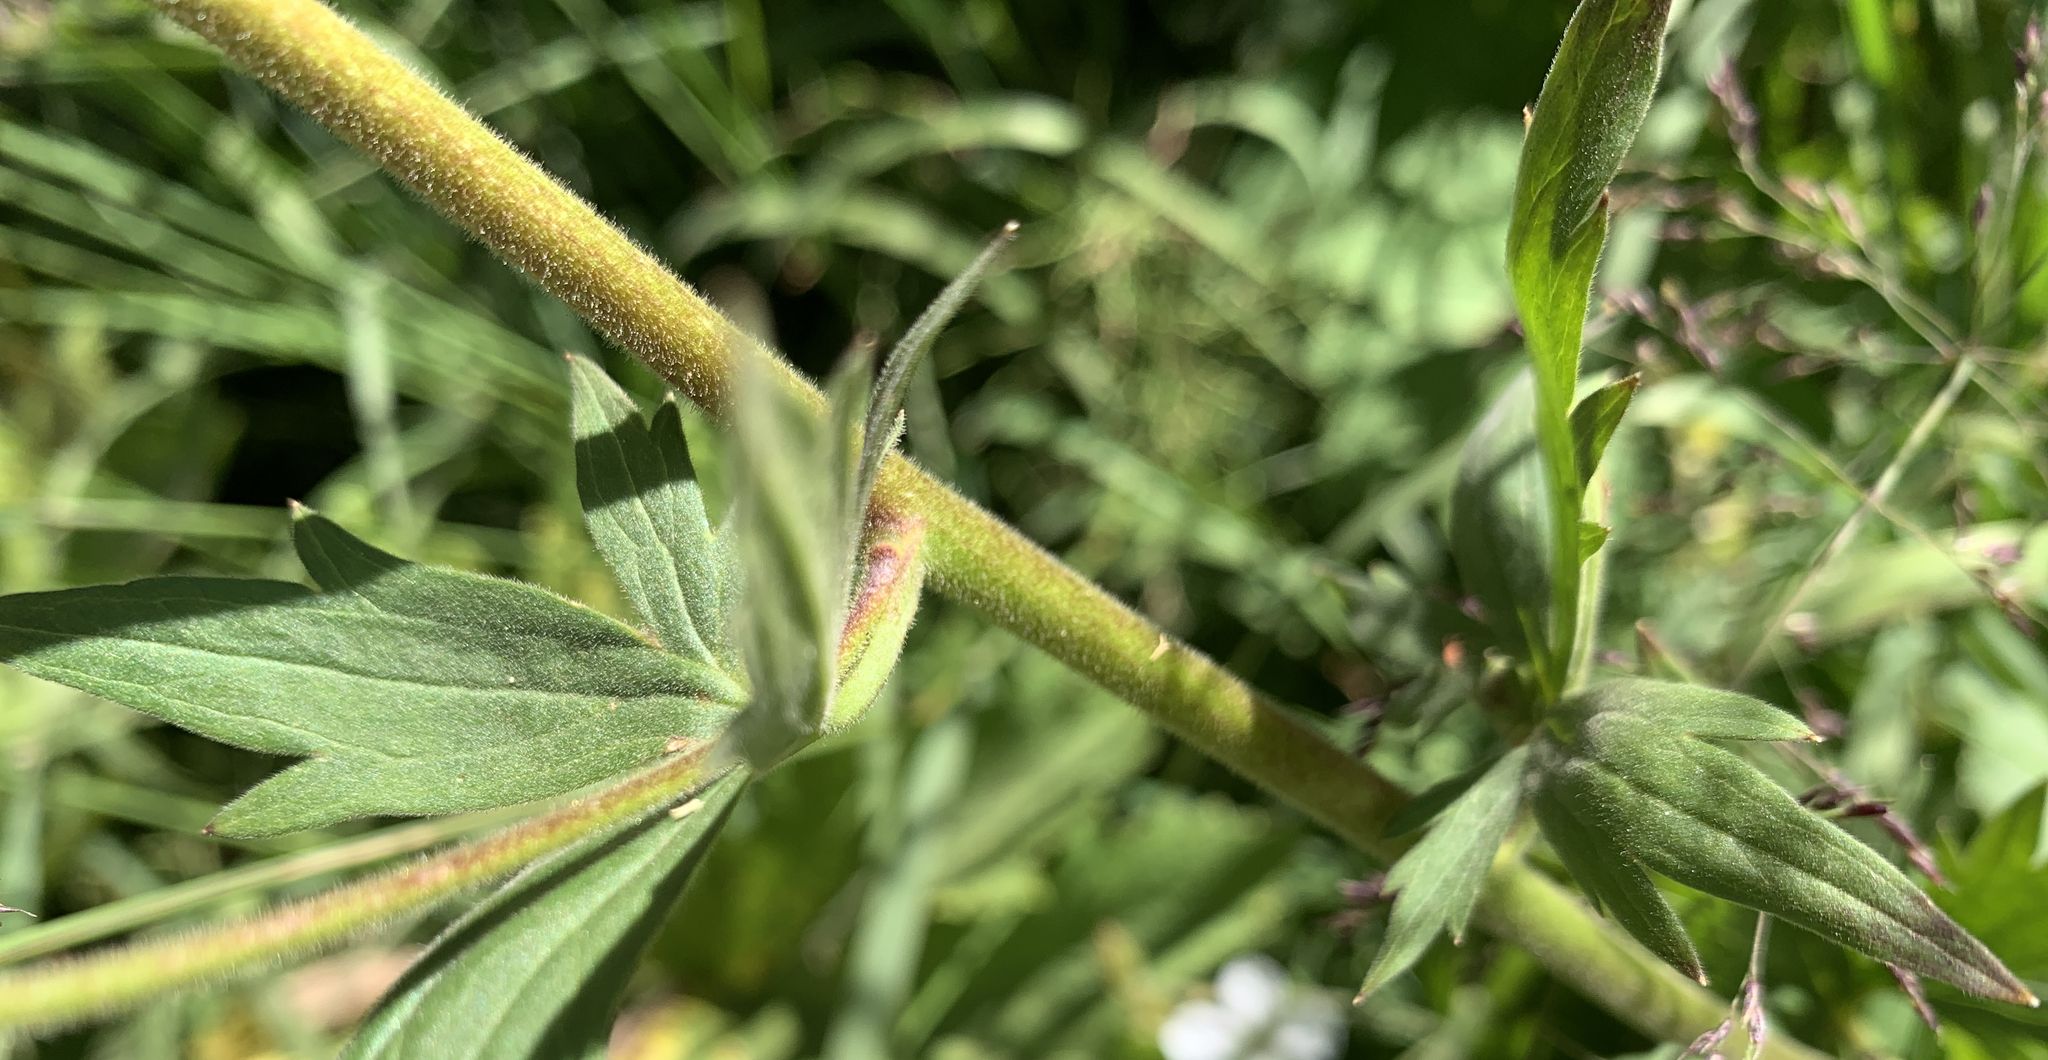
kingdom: Plantae
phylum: Tracheophyta
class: Magnoliopsida
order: Ranunculales
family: Ranunculaceae
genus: Aconitum
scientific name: Aconitum columbianum
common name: Columbia aconite
